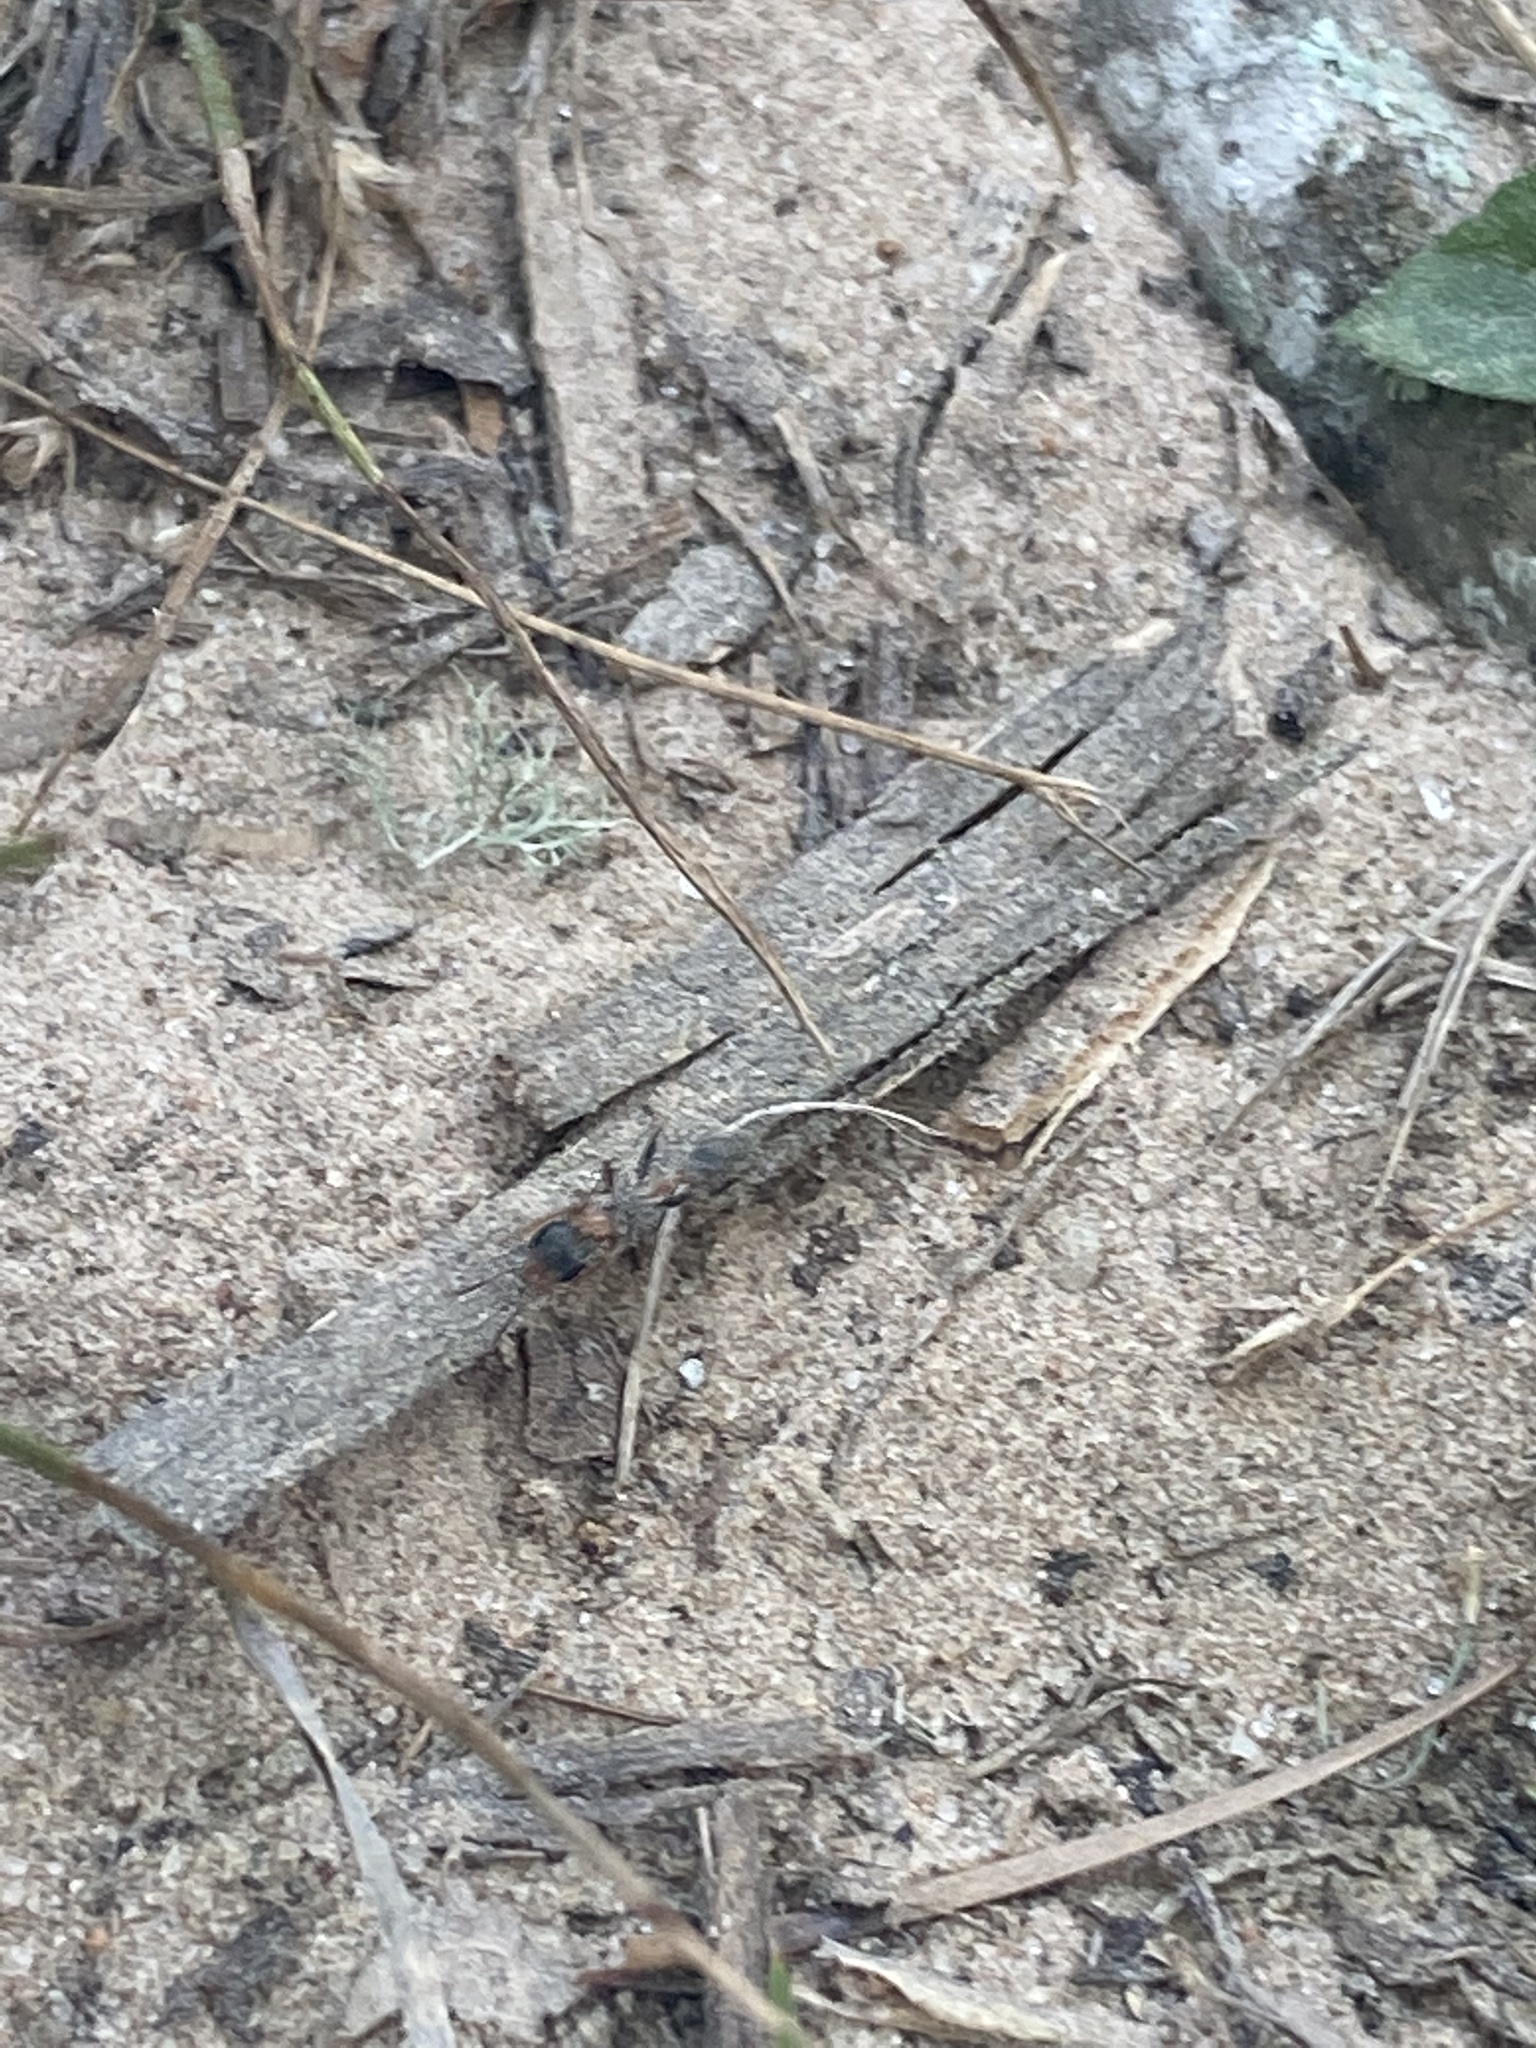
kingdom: Animalia
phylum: Arthropoda
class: Insecta
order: Hymenoptera
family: Formicidae
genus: Pseudomyrmex
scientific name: Pseudomyrmex gracilis
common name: Graceful twig ant
